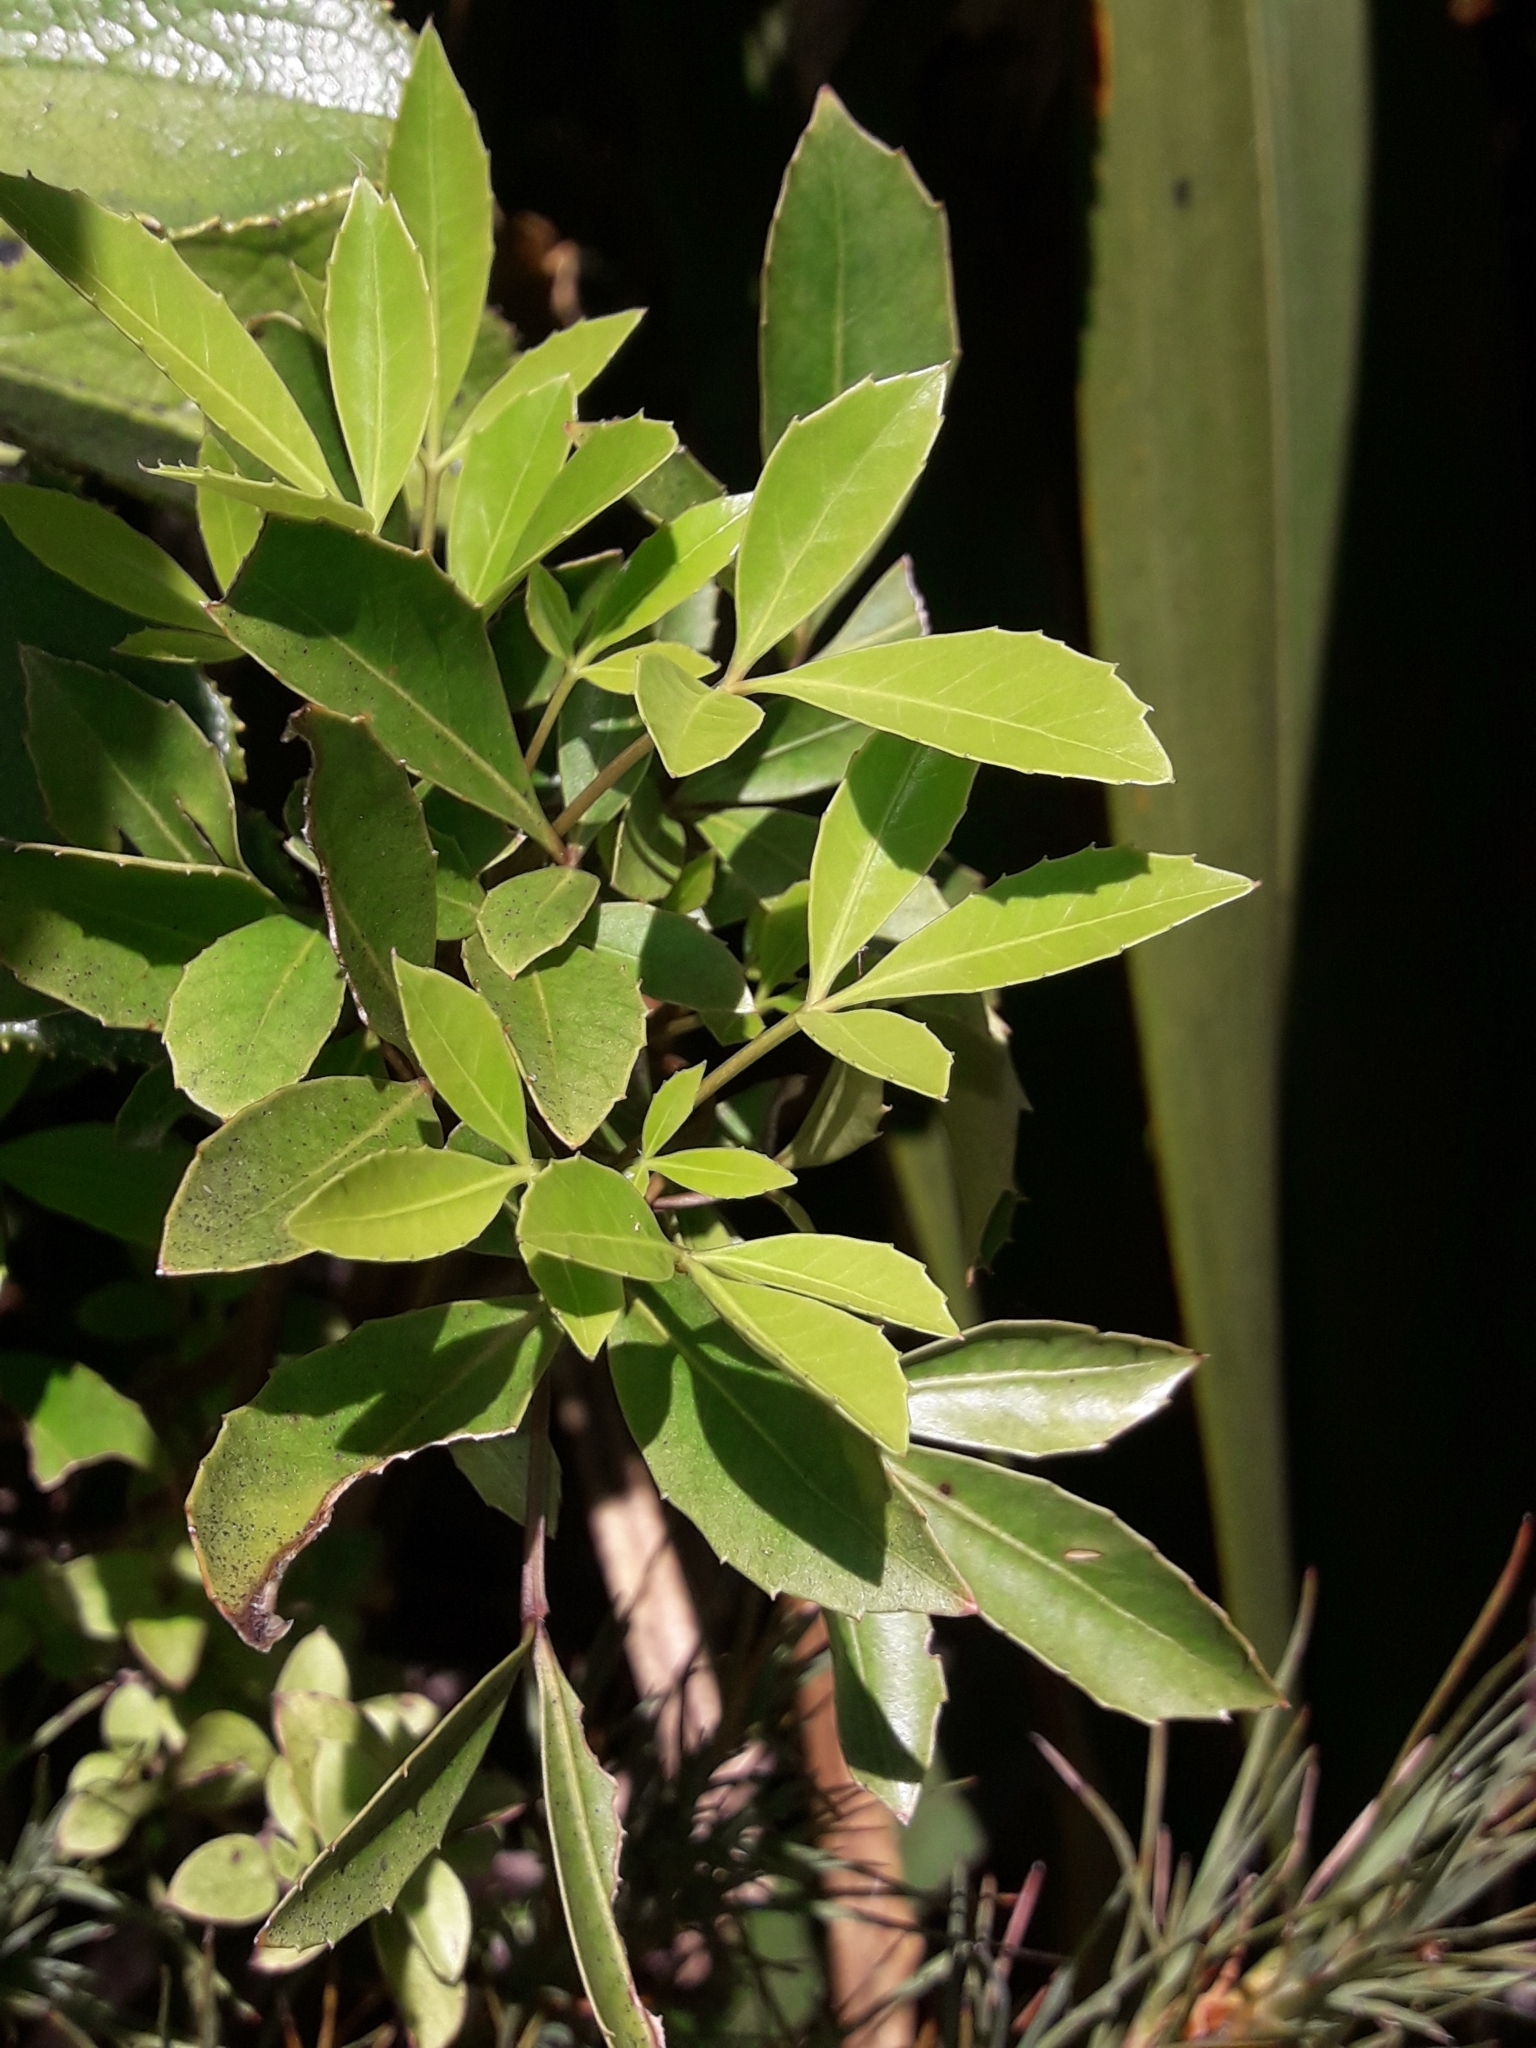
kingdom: Plantae
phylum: Tracheophyta
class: Magnoliopsida
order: Apiales
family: Araliaceae
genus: Raukaua
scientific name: Raukaua simplex
